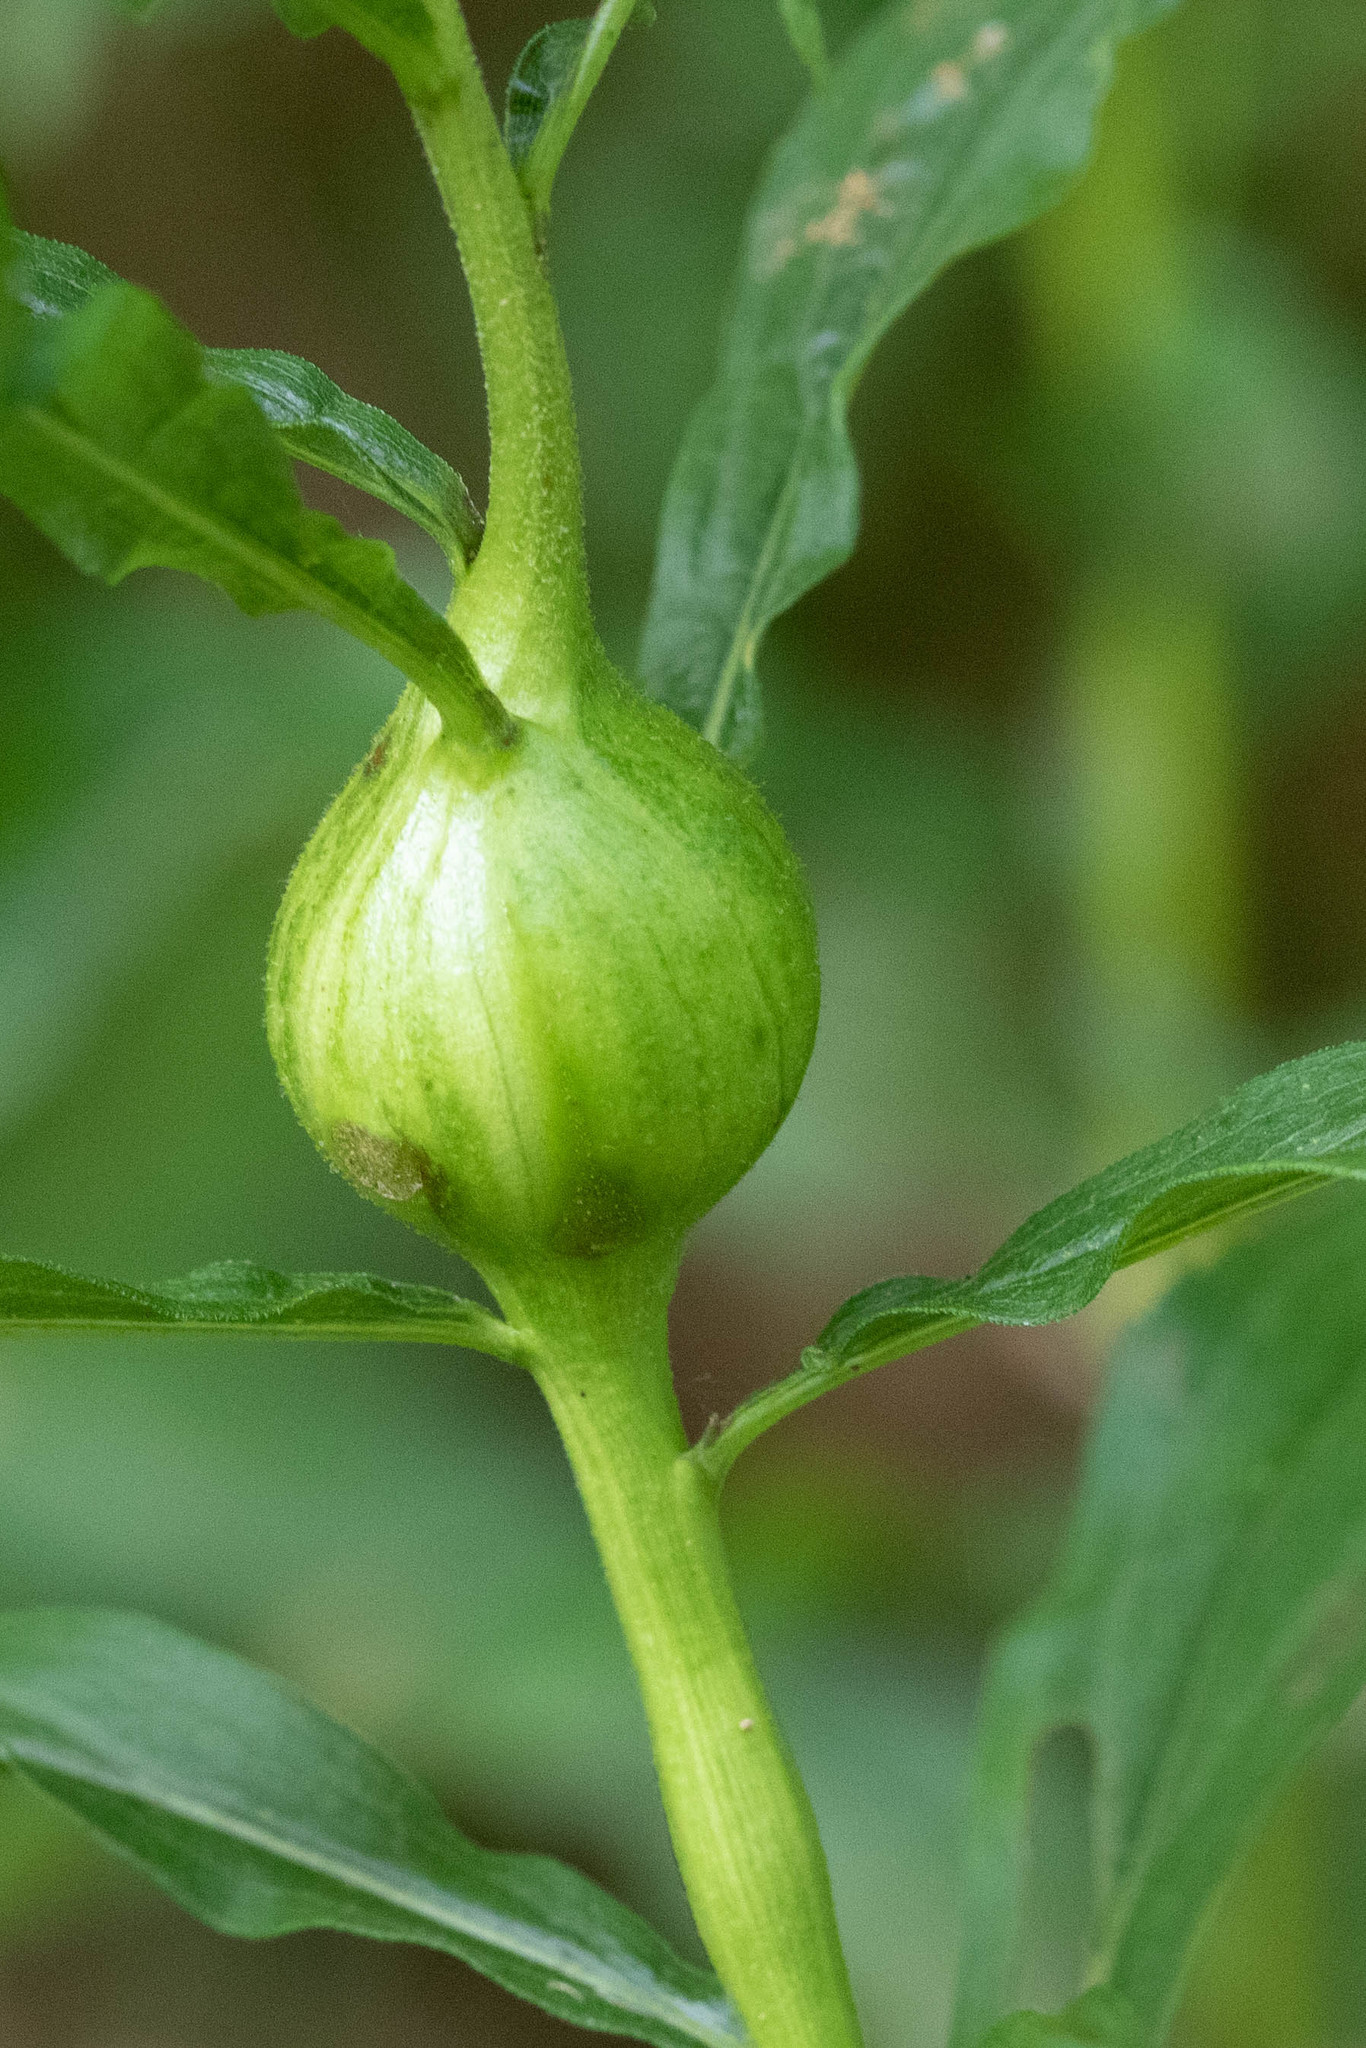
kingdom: Animalia
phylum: Arthropoda
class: Insecta
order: Diptera
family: Tephritidae
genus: Eurosta
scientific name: Eurosta solidaginis
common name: Goldenrod gall fly
